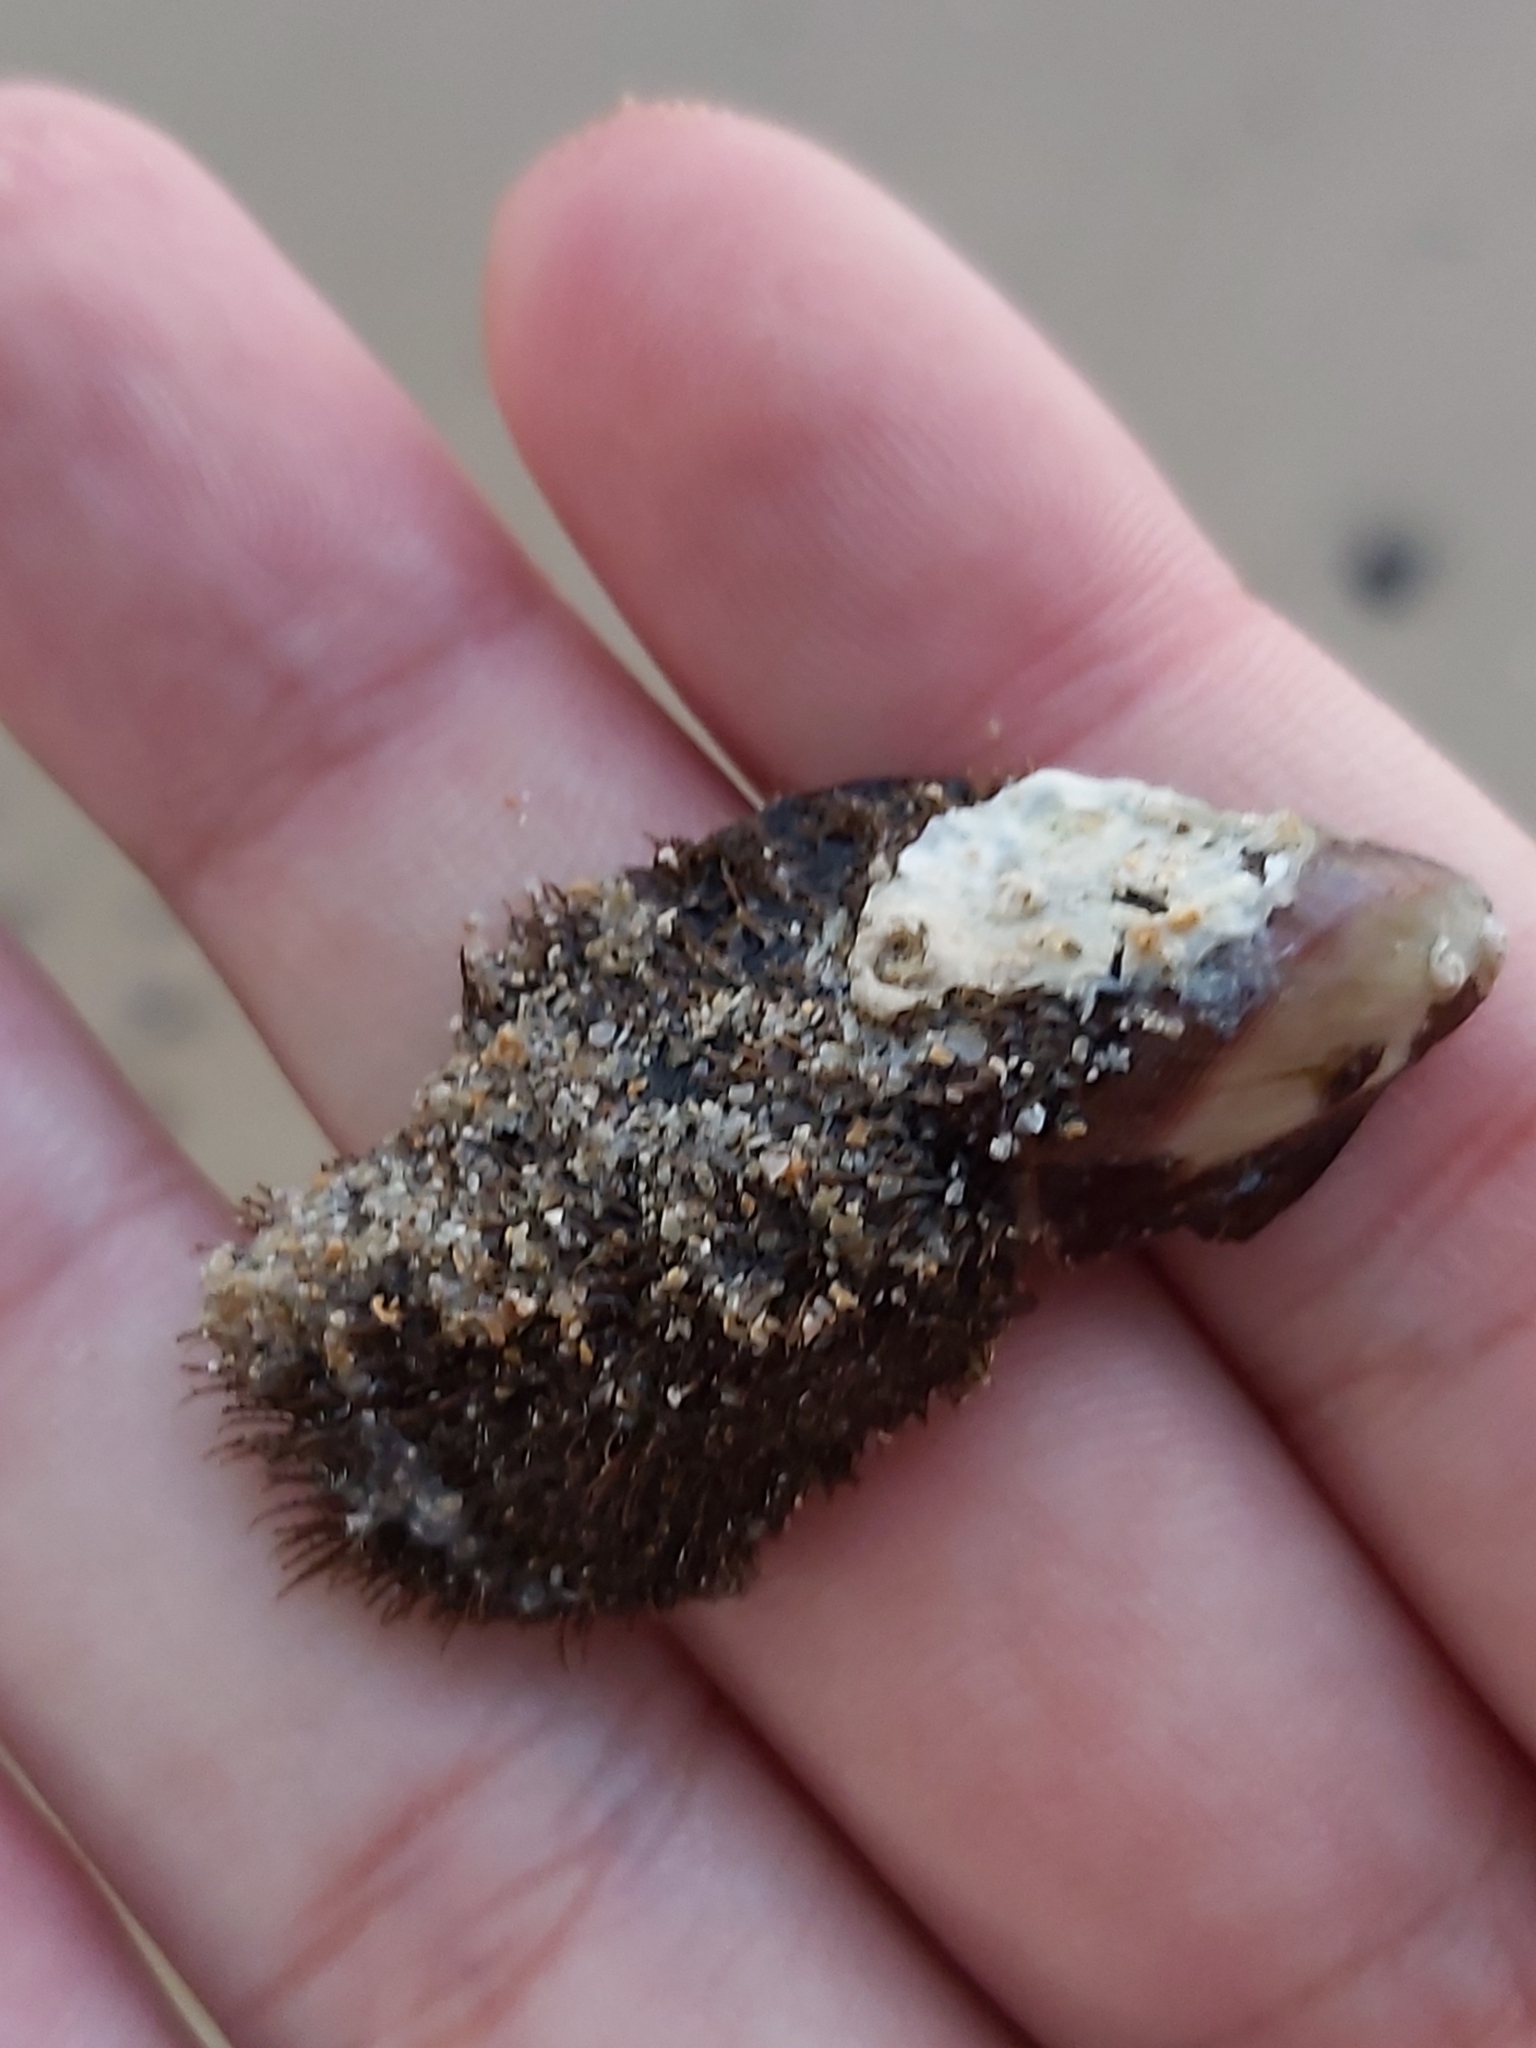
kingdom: Animalia
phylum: Mollusca
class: Bivalvia
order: Mytilida
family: Mytilidae
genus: Trichomya
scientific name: Trichomya hirsuta
